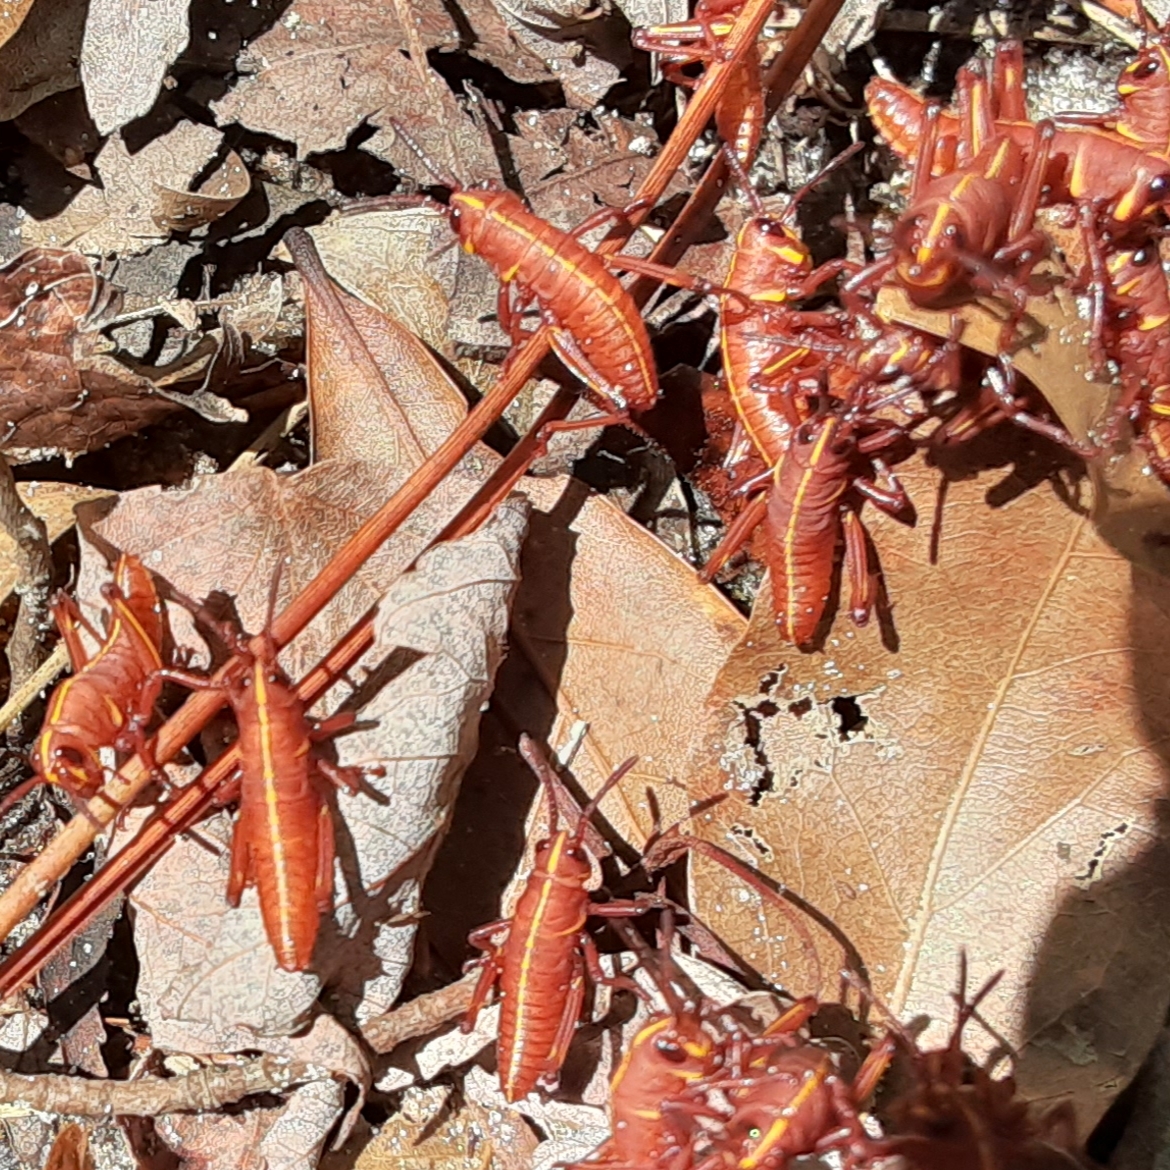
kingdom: Animalia
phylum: Arthropoda
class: Insecta
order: Orthoptera
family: Romaleidae
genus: Romalea
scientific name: Romalea microptera
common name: Eastern lubber grasshopper
